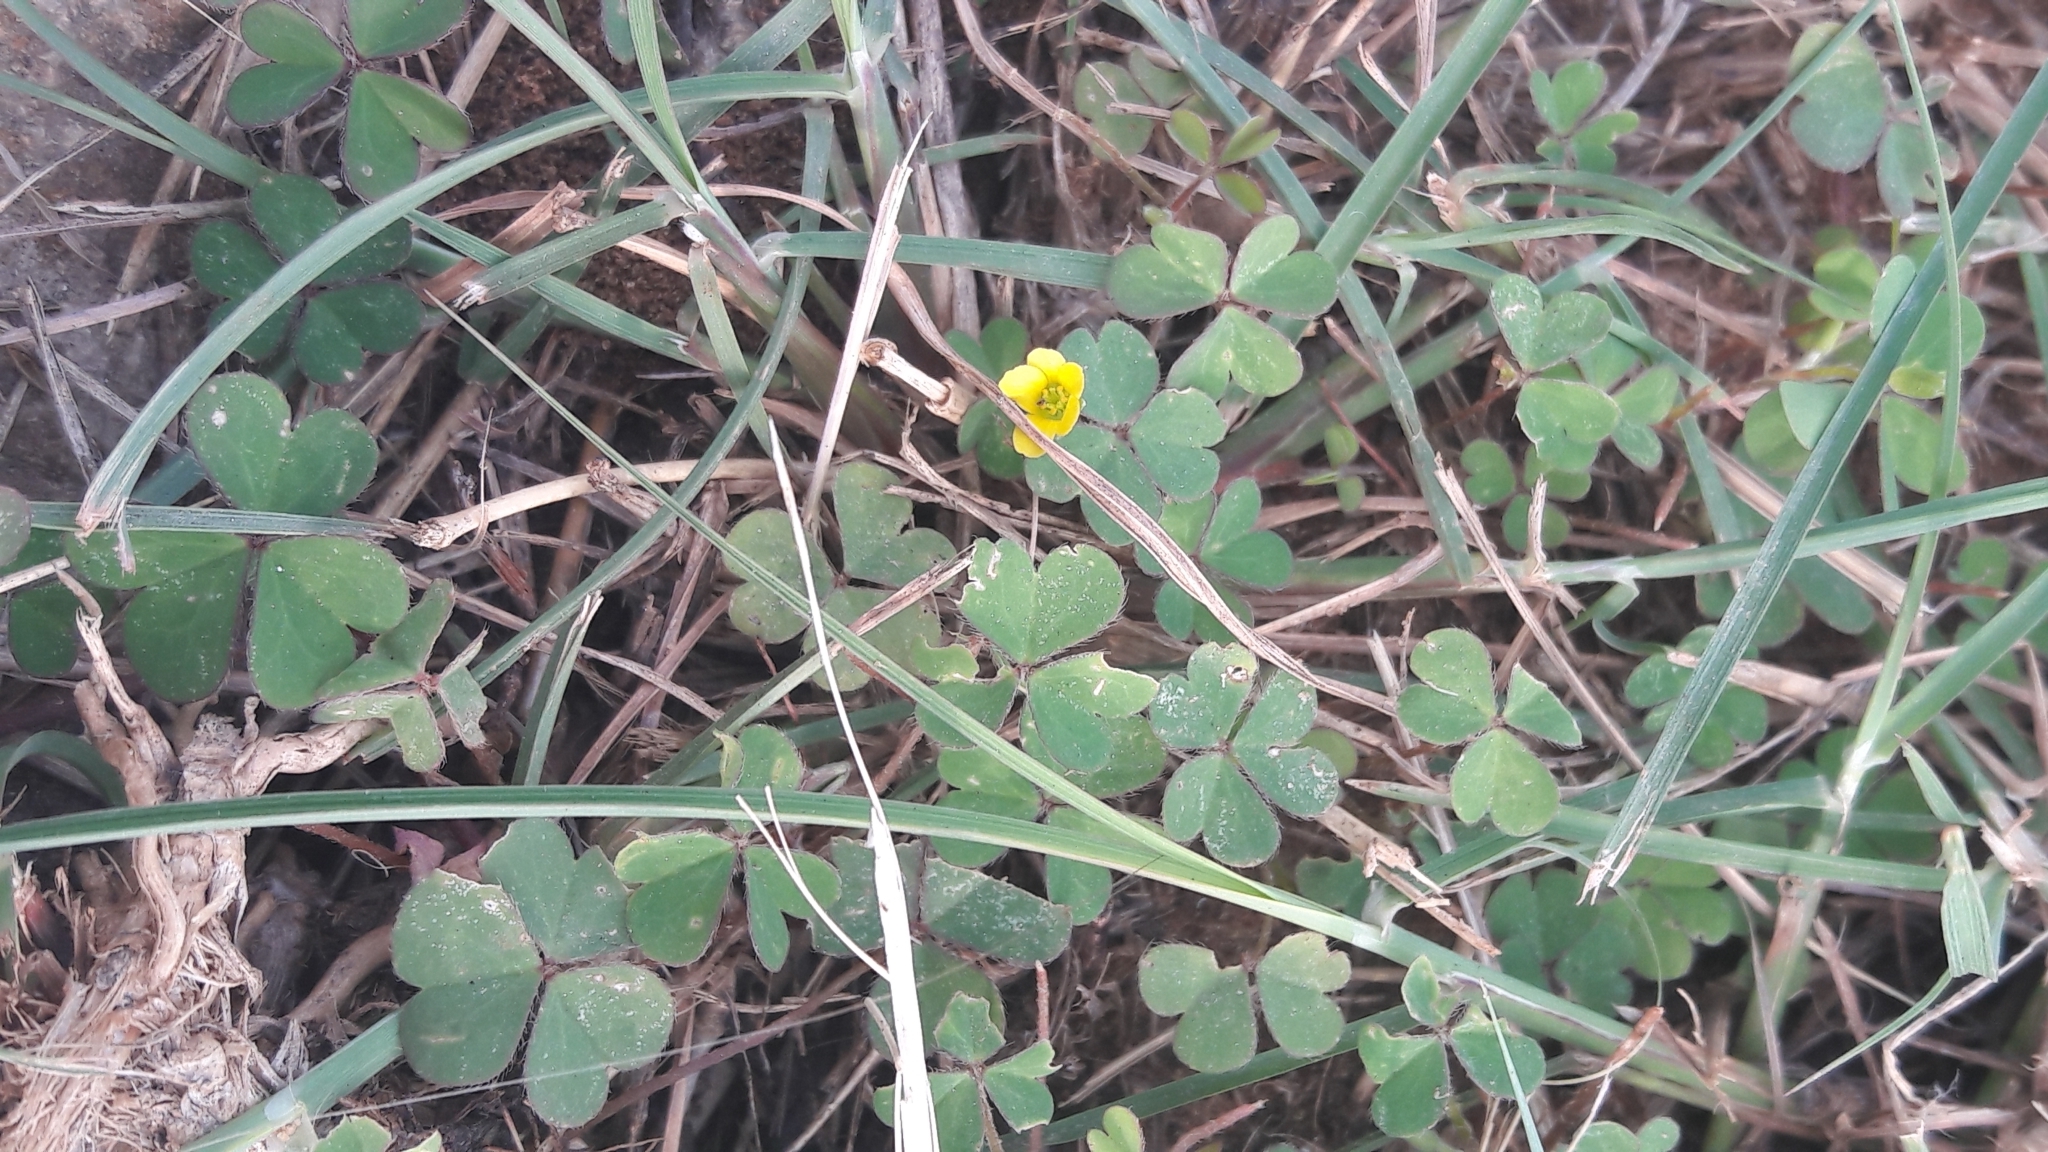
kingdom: Plantae
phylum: Tracheophyta
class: Magnoliopsida
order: Oxalidales
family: Oxalidaceae
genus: Oxalis
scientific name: Oxalis corniculata
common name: Procumbent yellow-sorrel
